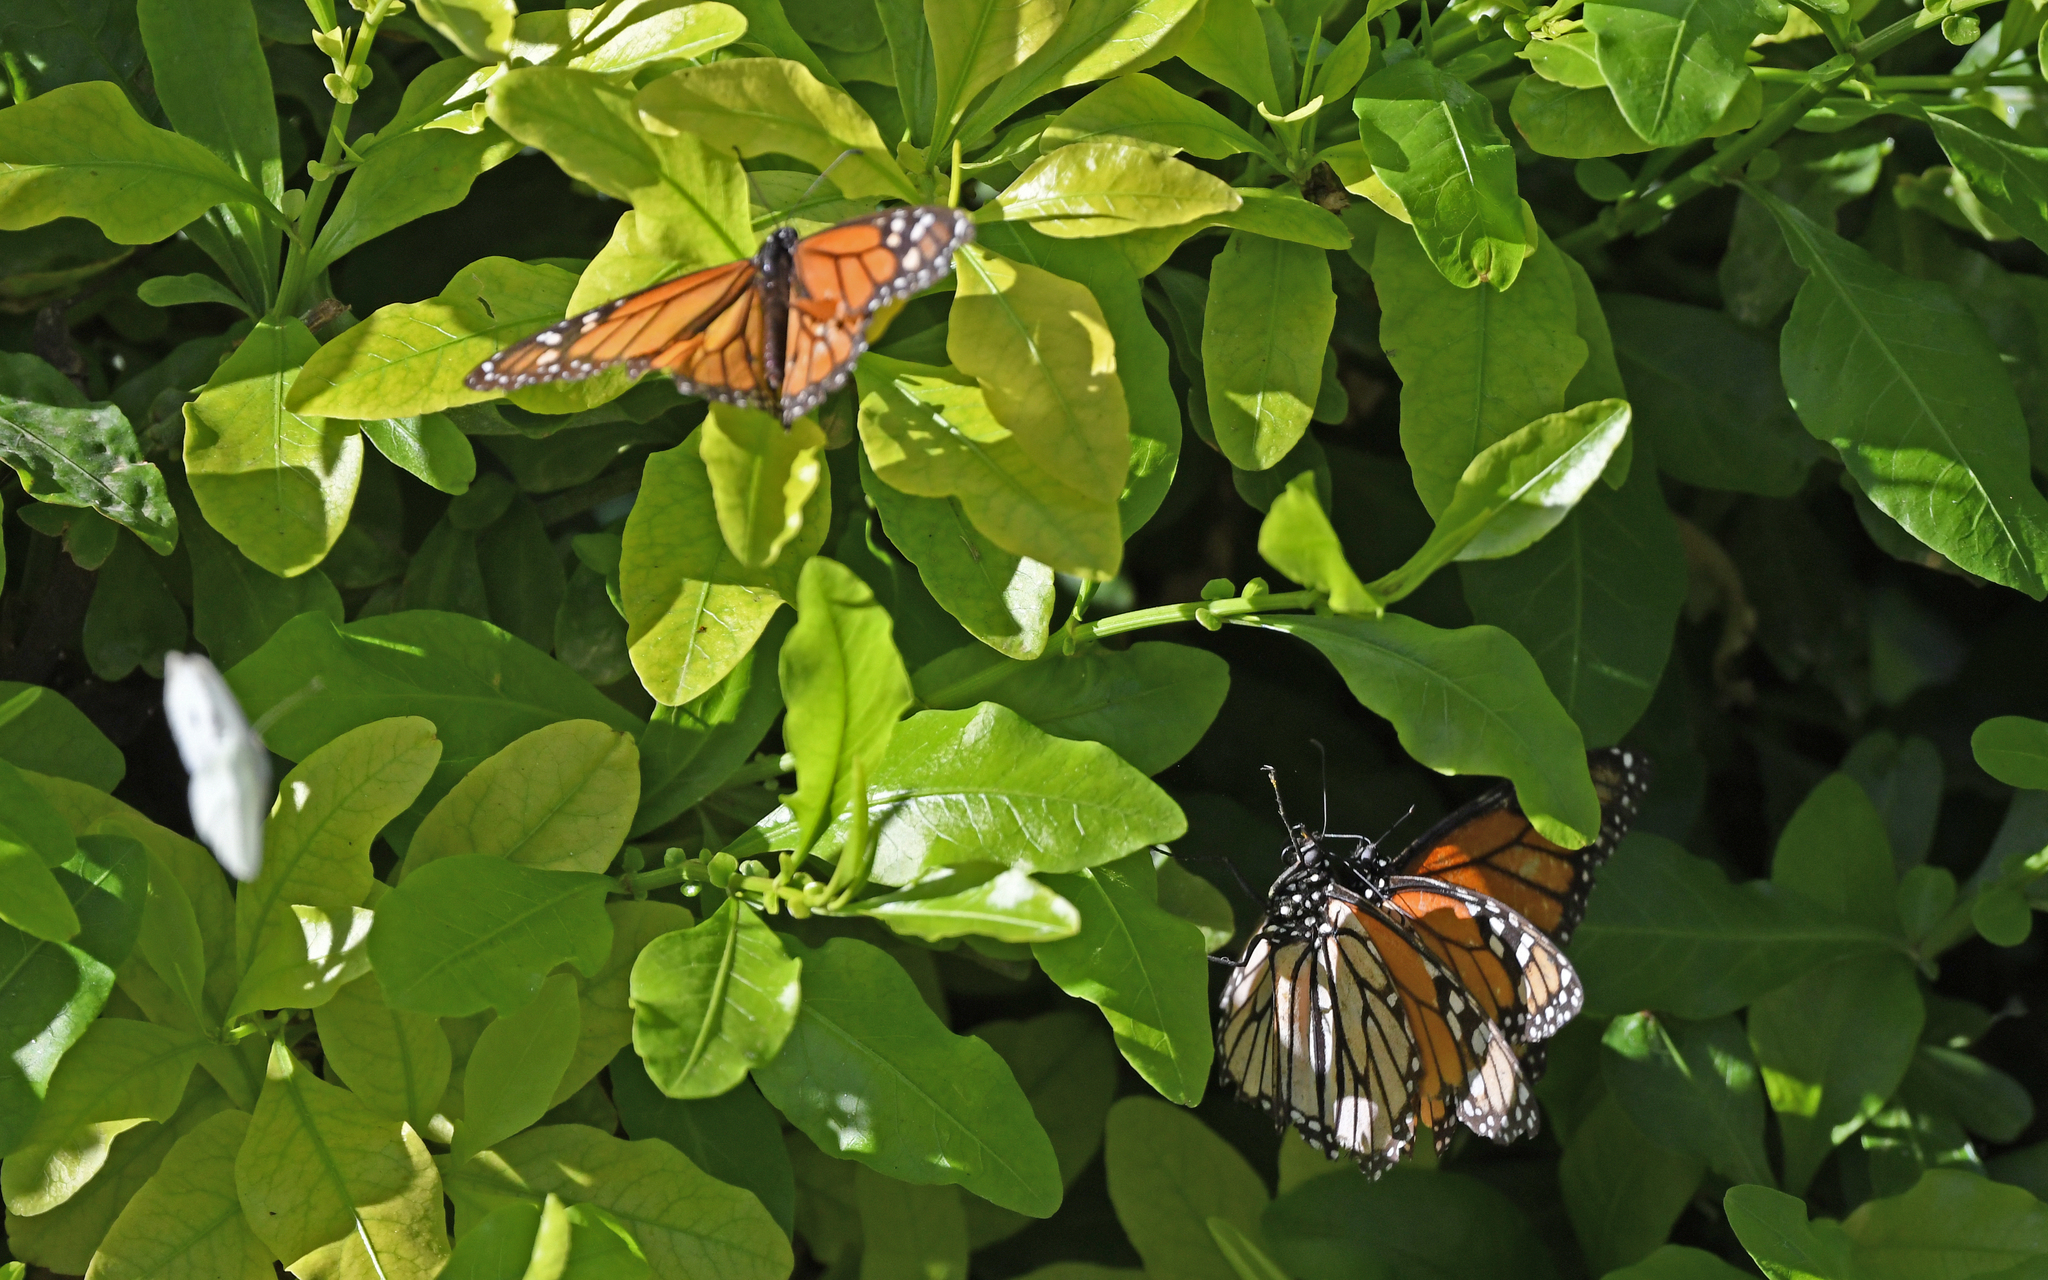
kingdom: Animalia
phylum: Arthropoda
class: Insecta
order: Lepidoptera
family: Nymphalidae
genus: Danaus
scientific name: Danaus plexippus
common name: Monarch
